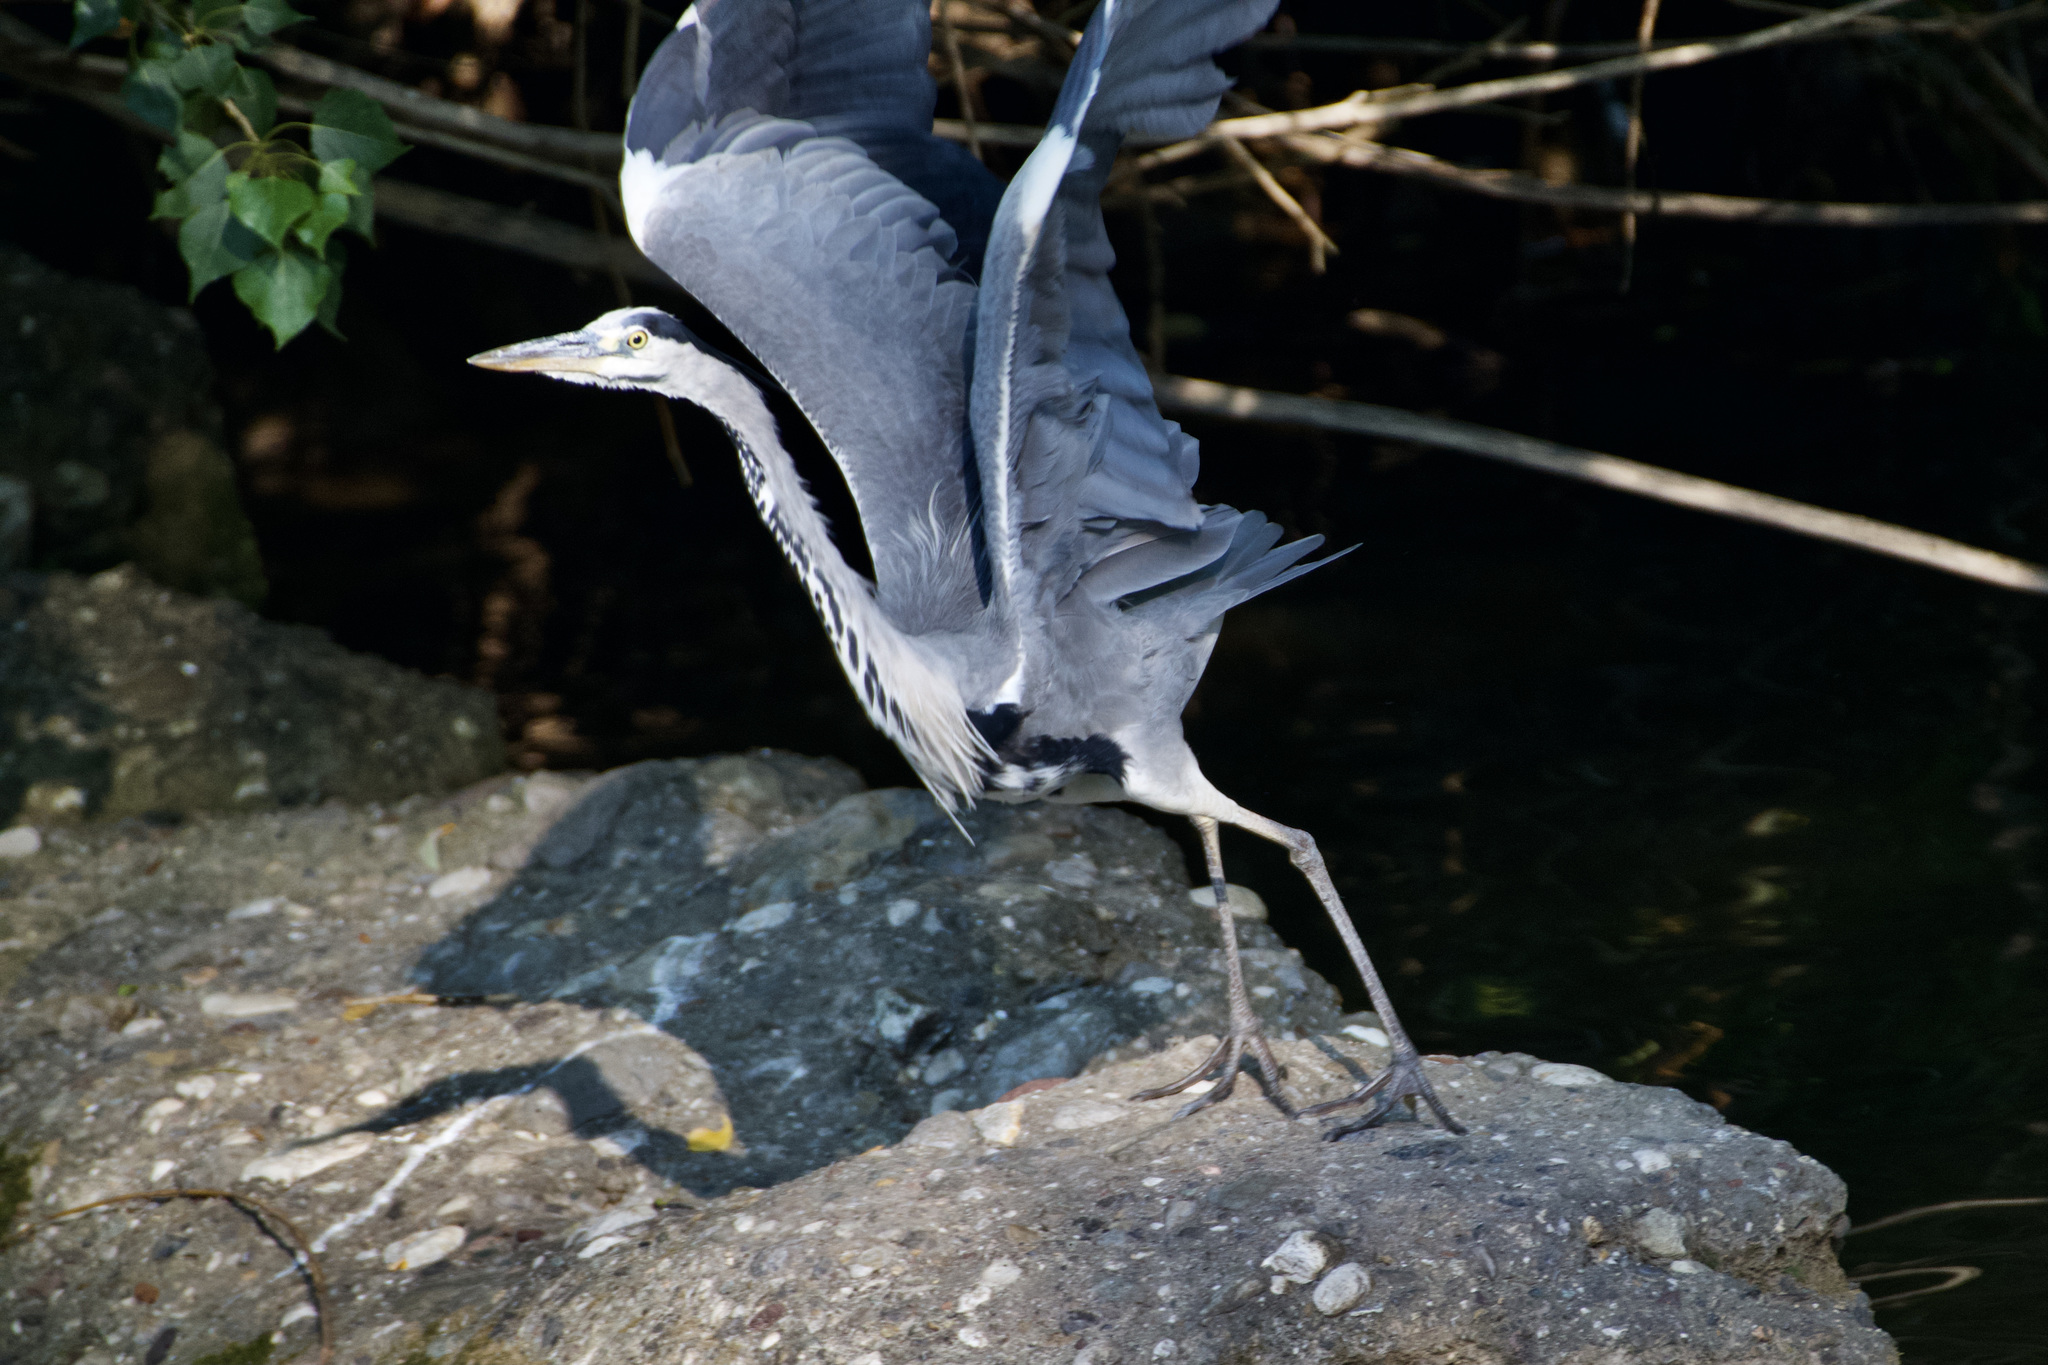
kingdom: Animalia
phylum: Chordata
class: Aves
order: Pelecaniformes
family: Ardeidae
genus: Ardea
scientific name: Ardea cinerea
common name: Grey heron
